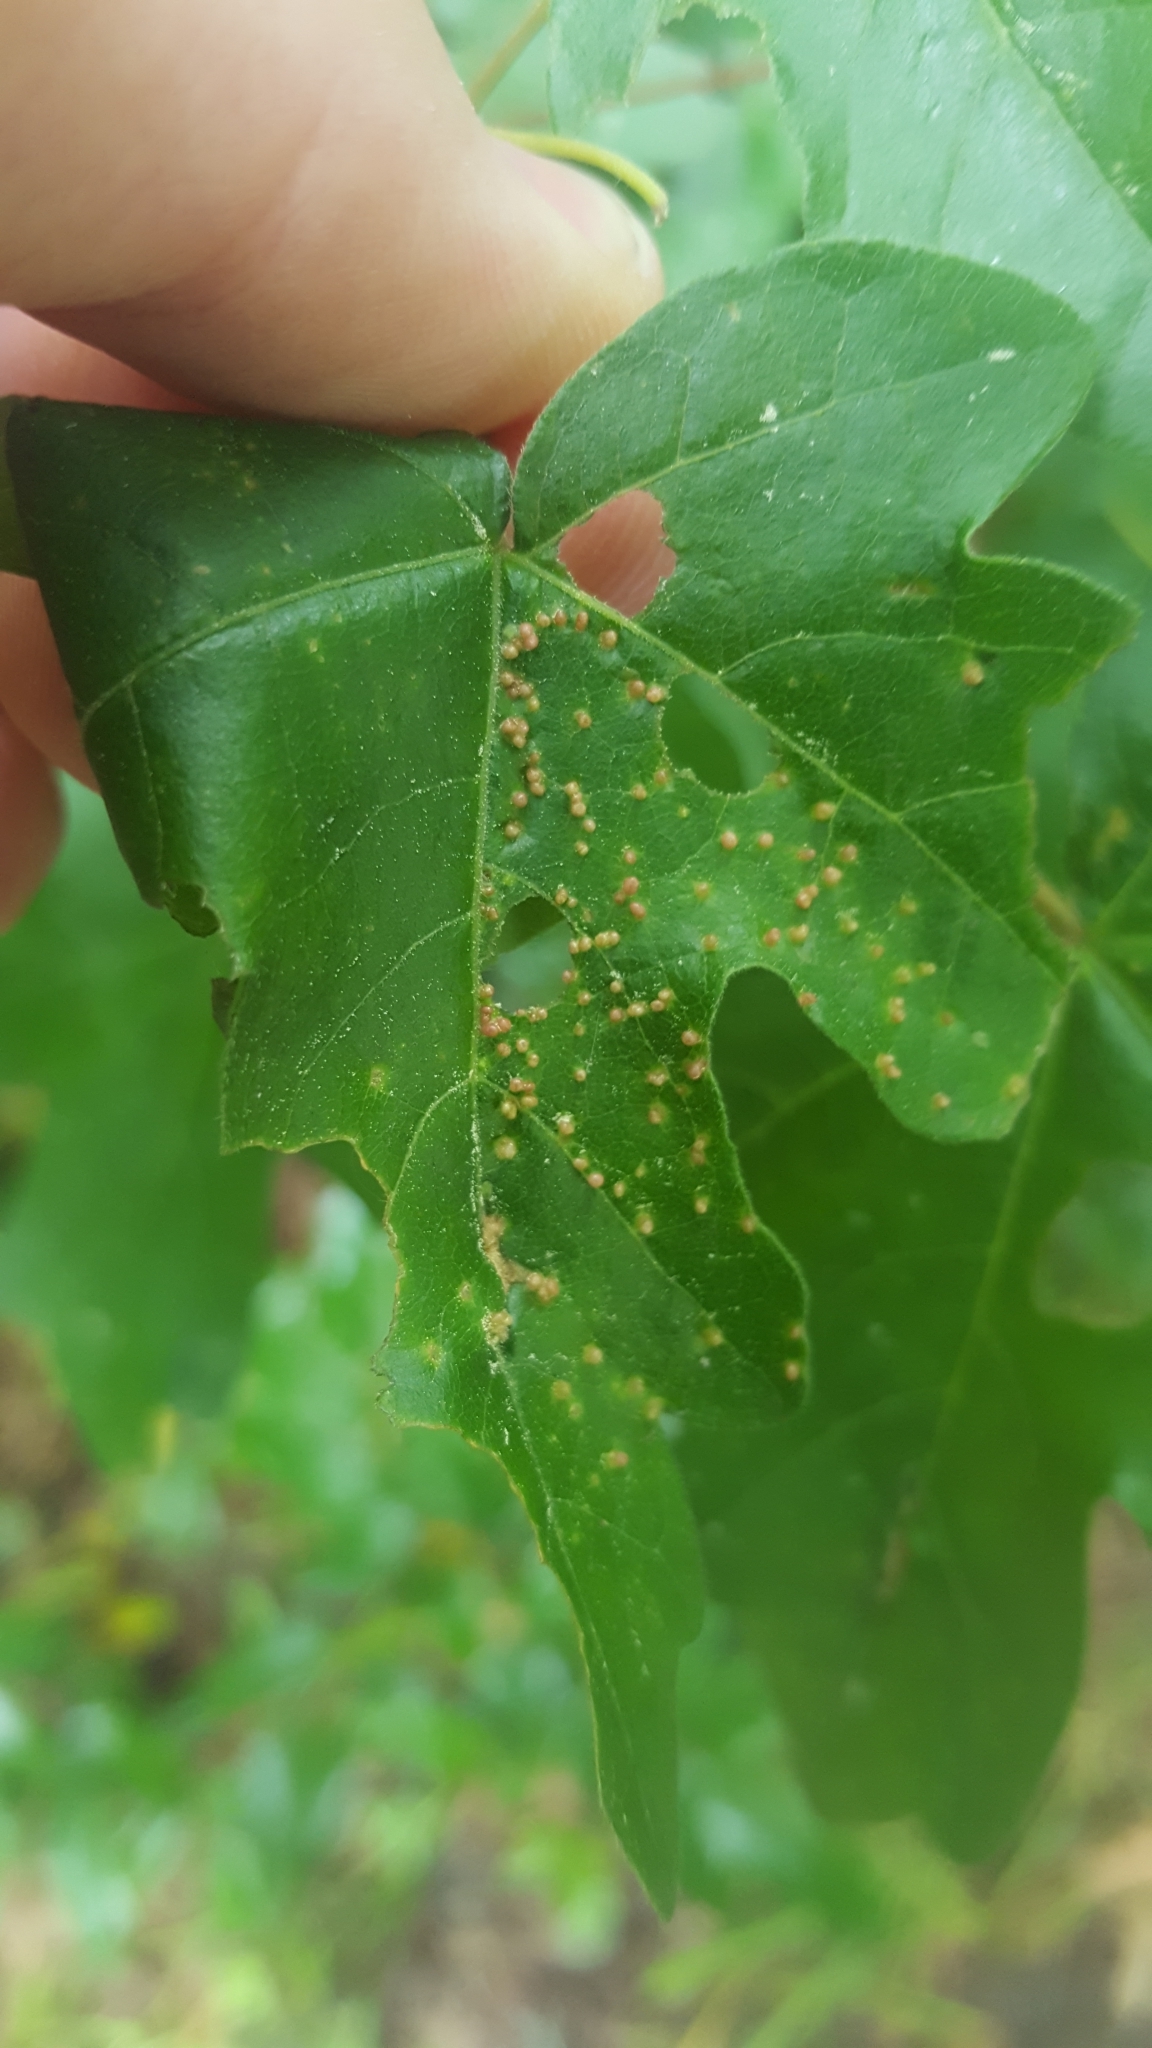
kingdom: Animalia
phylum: Arthropoda
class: Arachnida
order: Trombidiformes
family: Eriophyidae
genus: Aceria
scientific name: Aceria myriadeum
